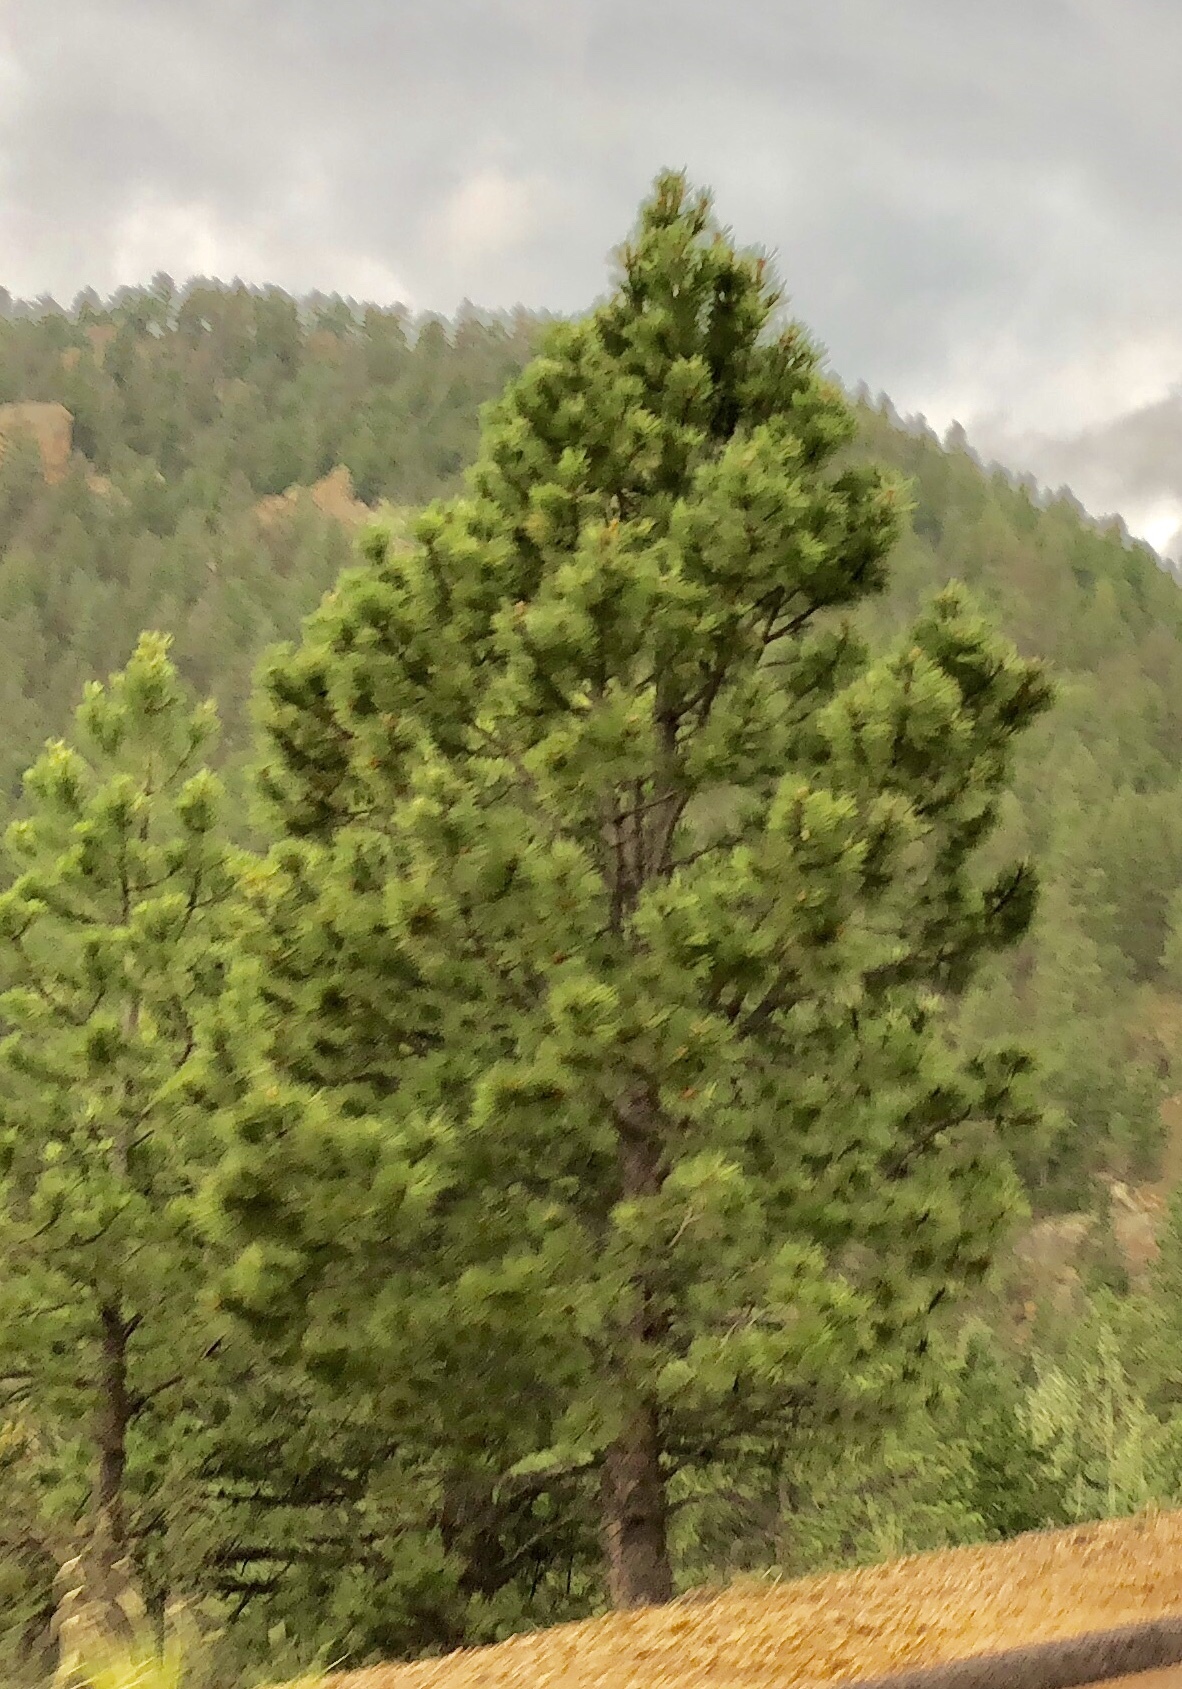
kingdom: Plantae
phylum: Tracheophyta
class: Pinopsida
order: Pinales
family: Pinaceae
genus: Pinus
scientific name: Pinus ponderosa
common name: Western yellow-pine
